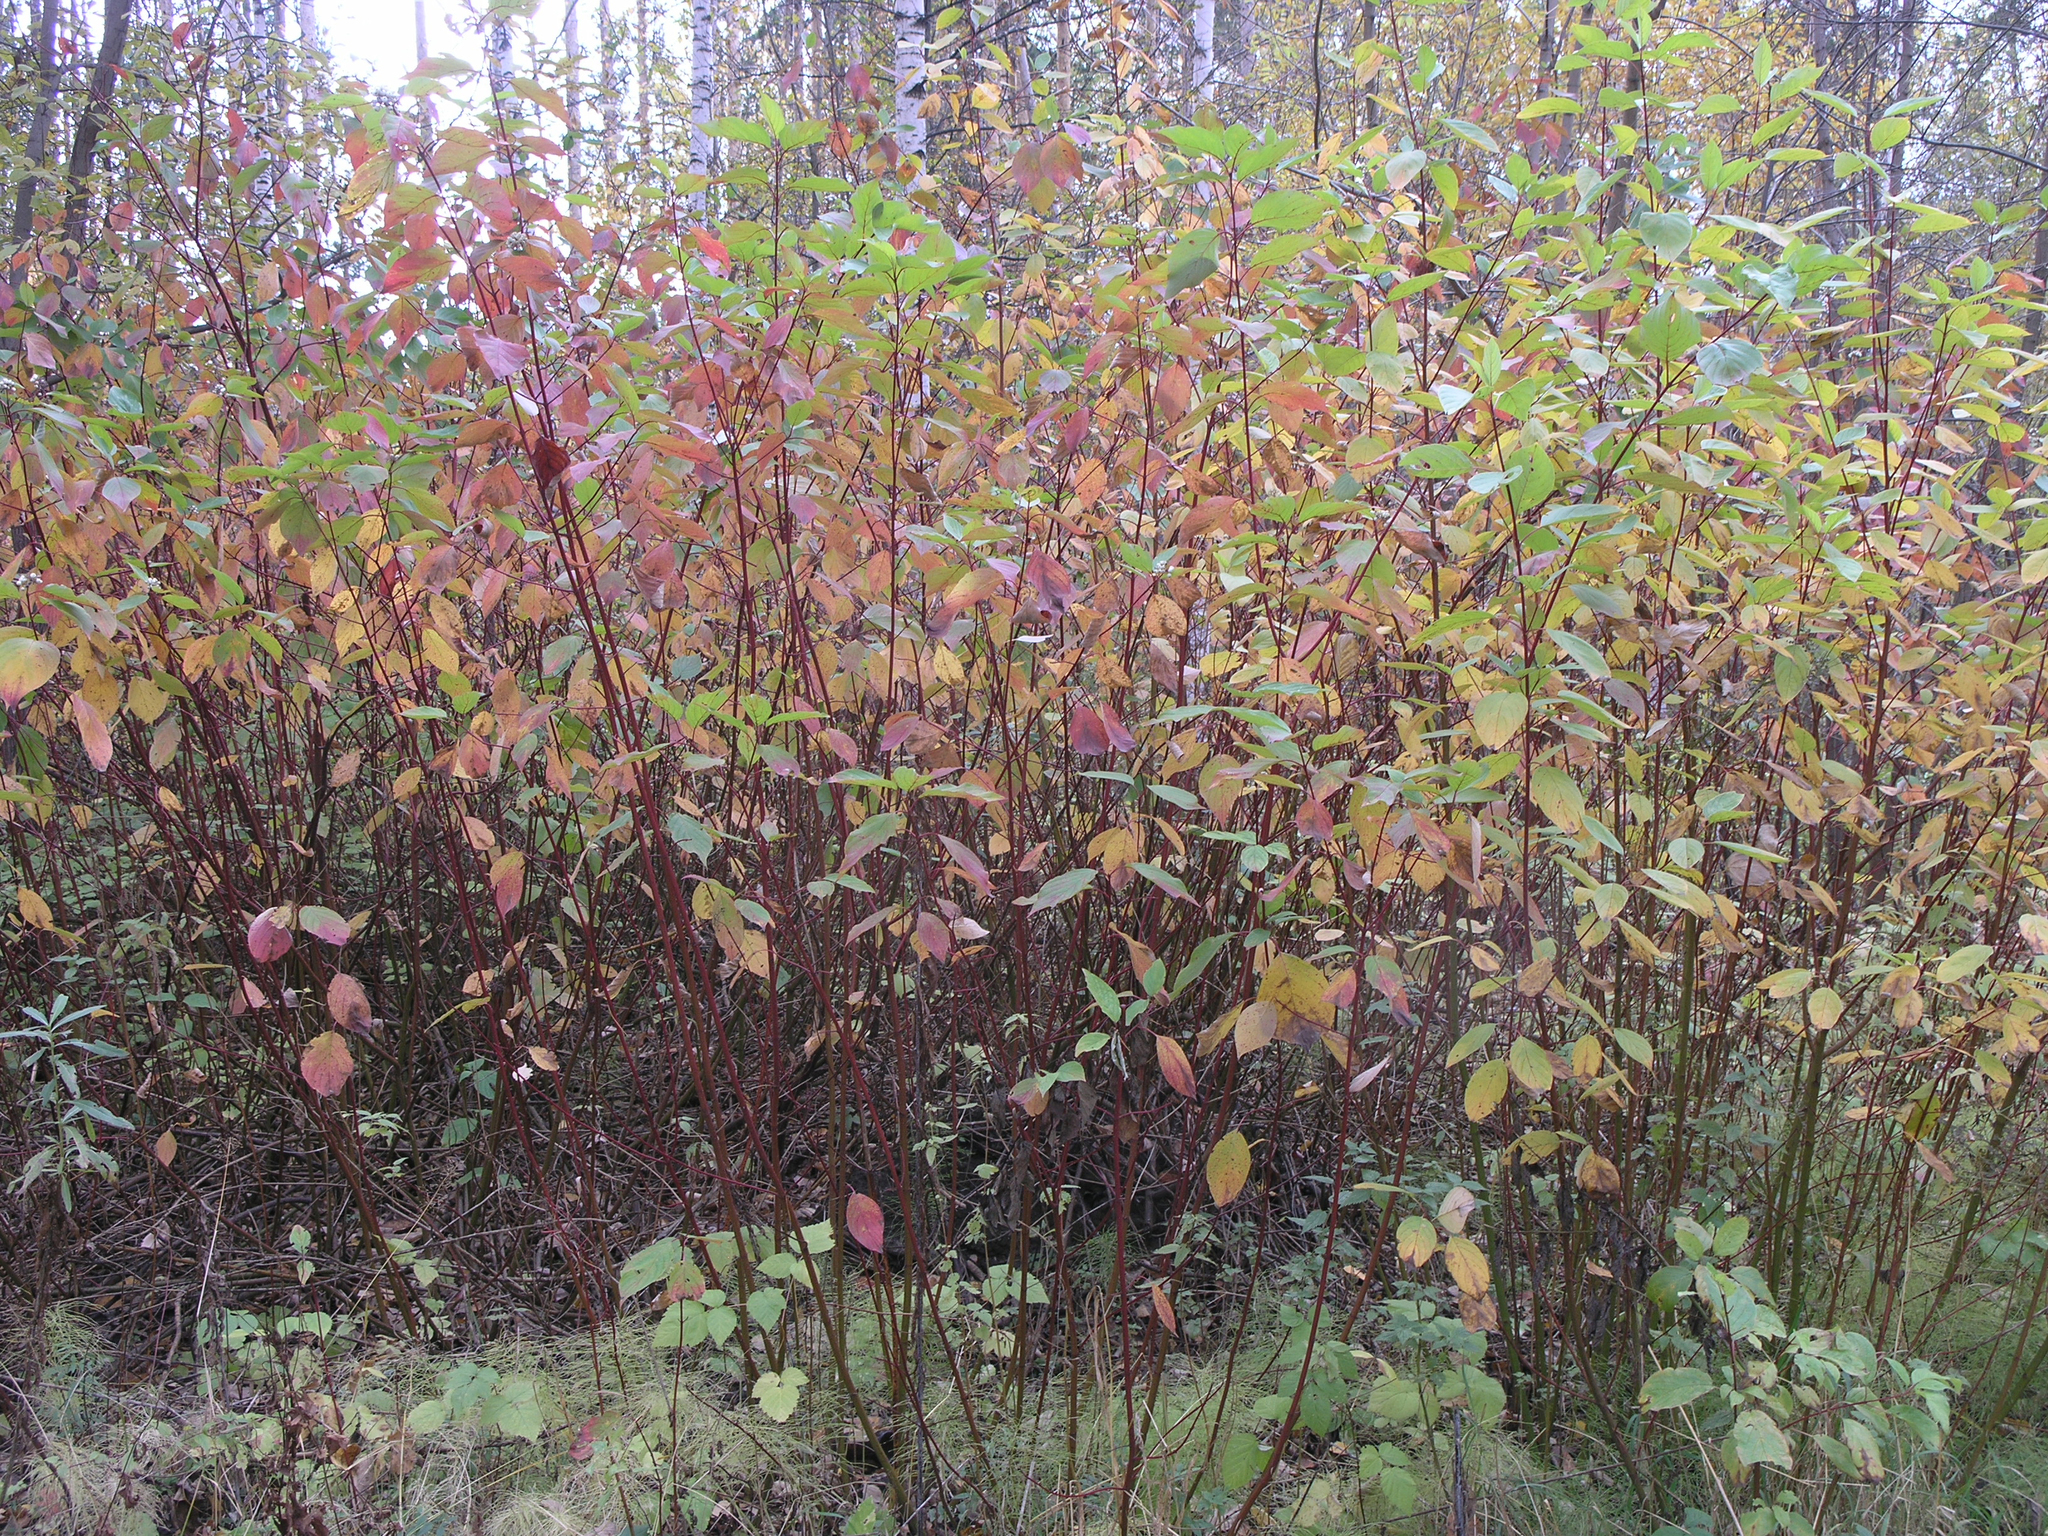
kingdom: Plantae
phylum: Tracheophyta
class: Magnoliopsida
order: Cornales
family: Cornaceae
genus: Cornus
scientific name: Cornus alba
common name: White dogwood
